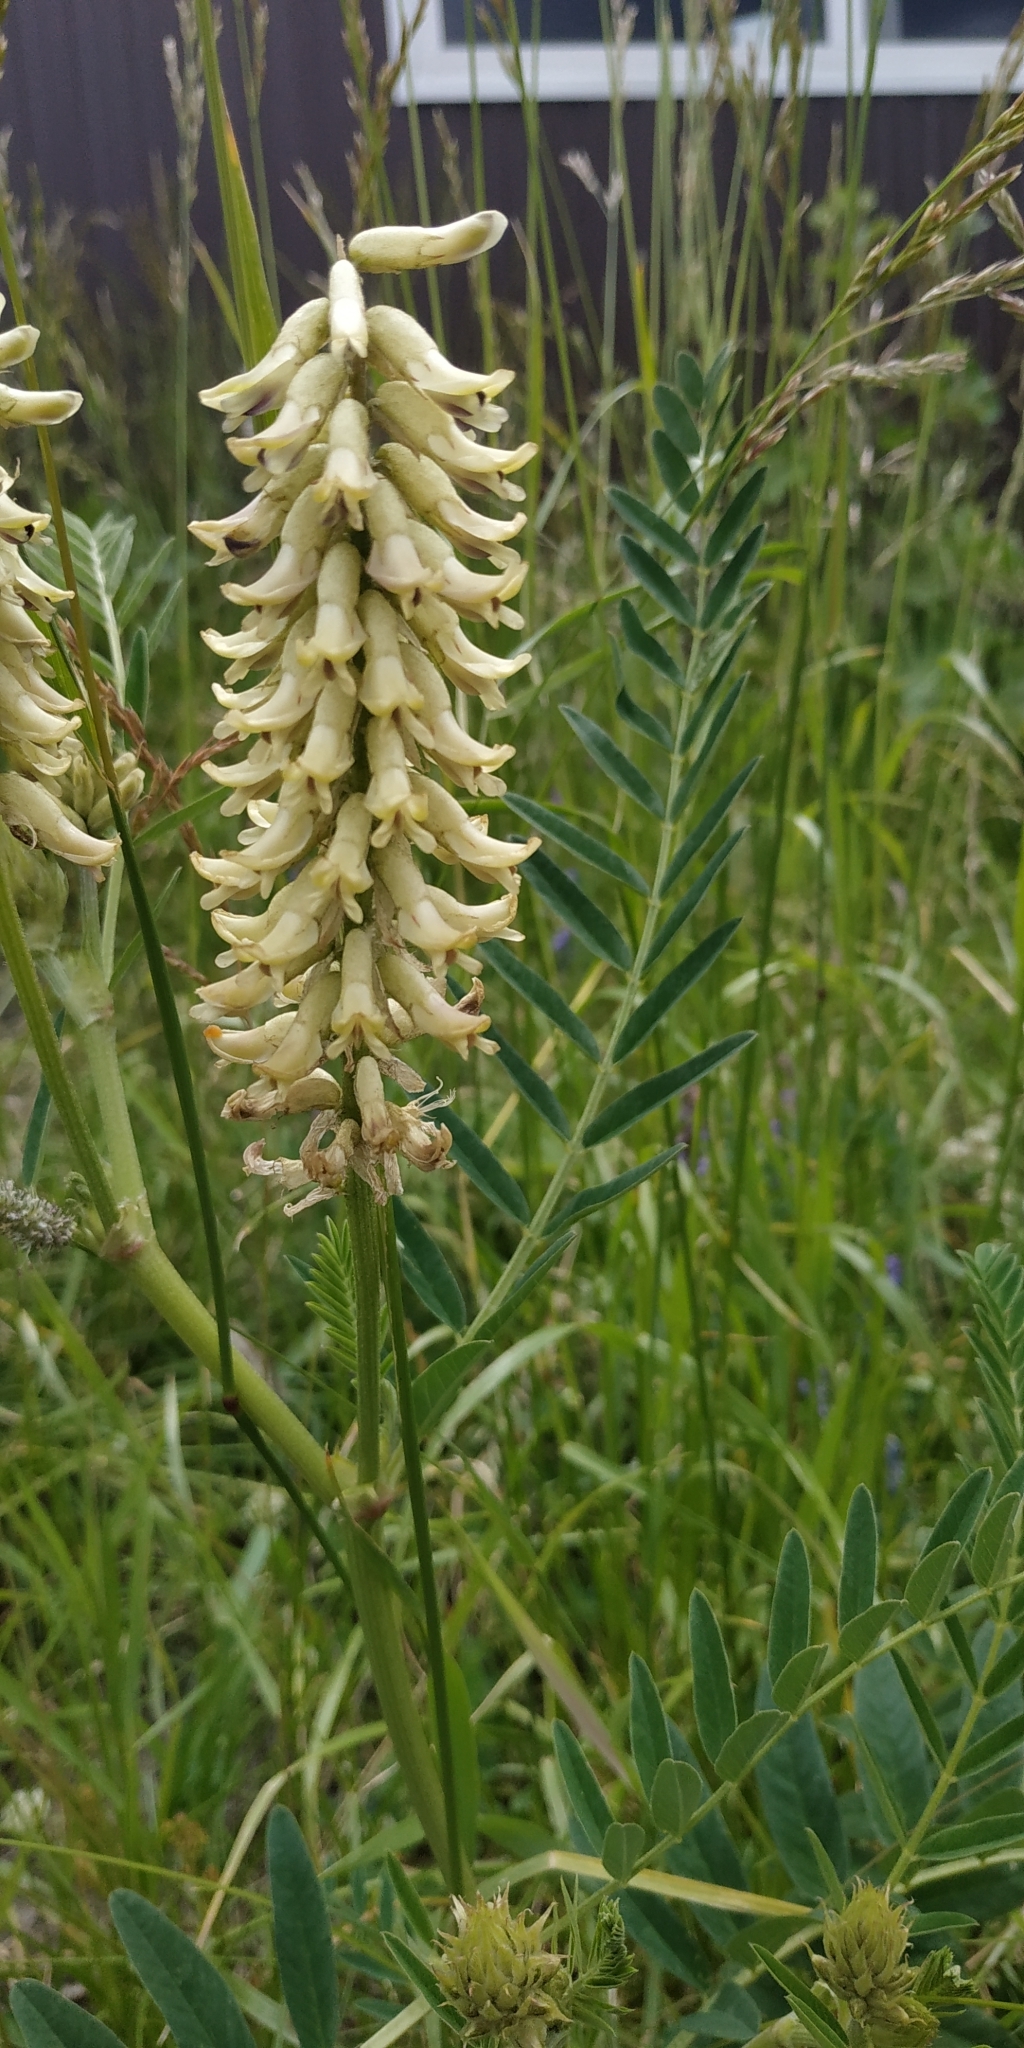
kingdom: Plantae
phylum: Tracheophyta
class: Magnoliopsida
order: Fabales
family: Fabaceae
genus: Astragalus
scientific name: Astragalus uliginosus
